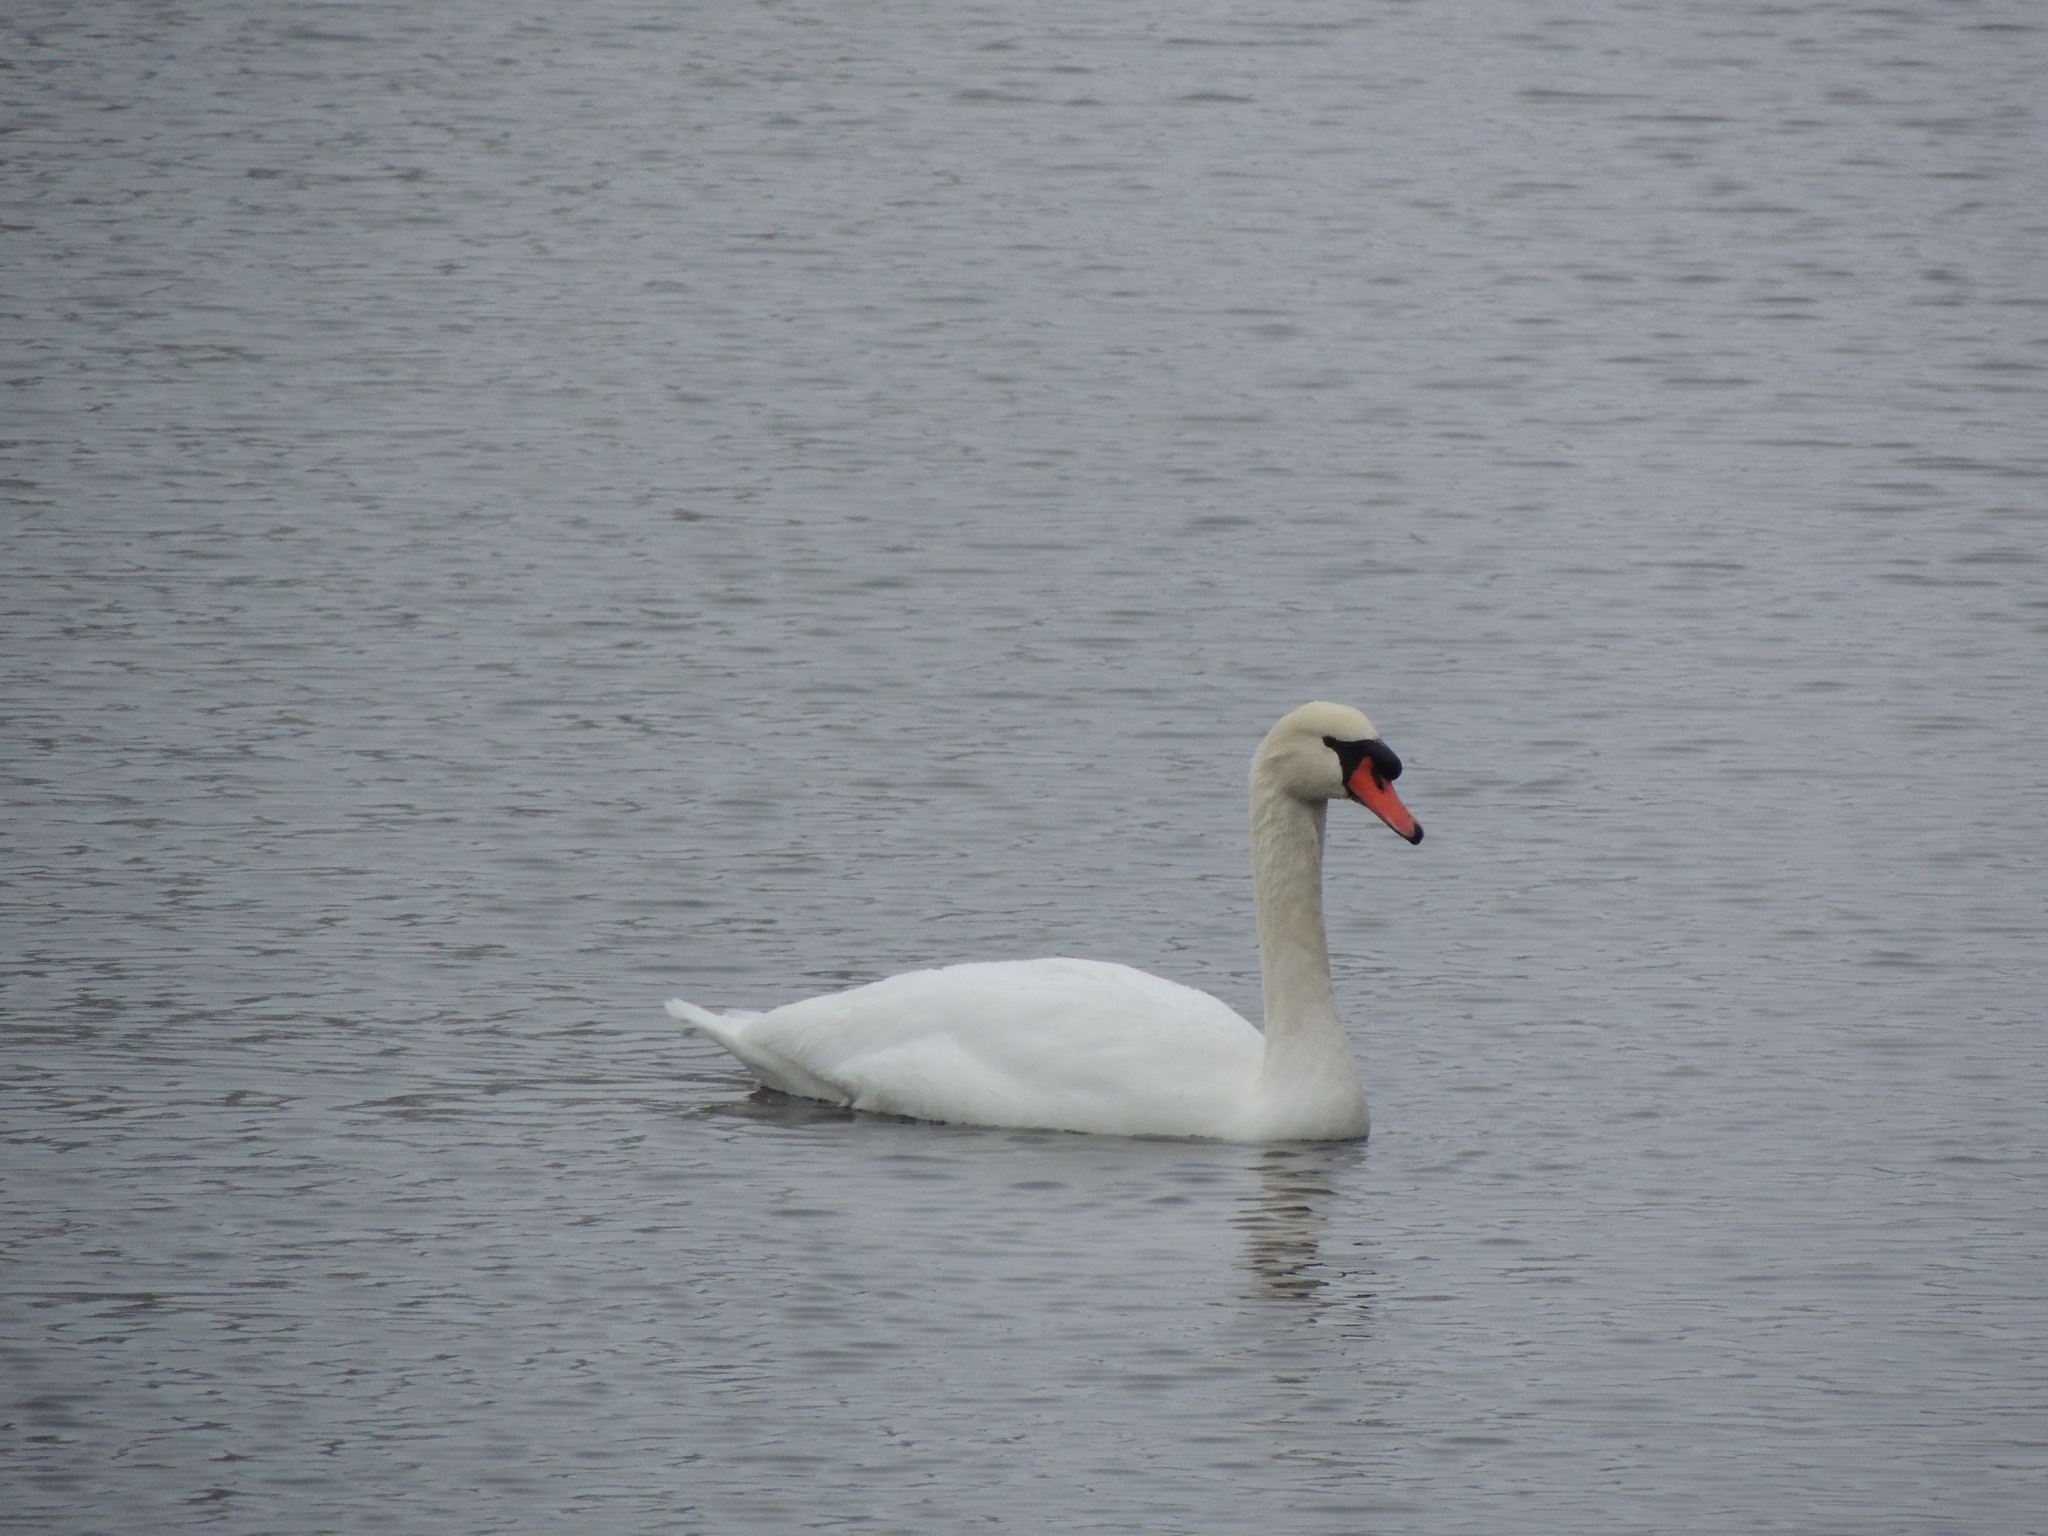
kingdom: Animalia
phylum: Chordata
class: Aves
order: Anseriformes
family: Anatidae
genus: Cygnus
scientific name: Cygnus olor
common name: Mute swan
